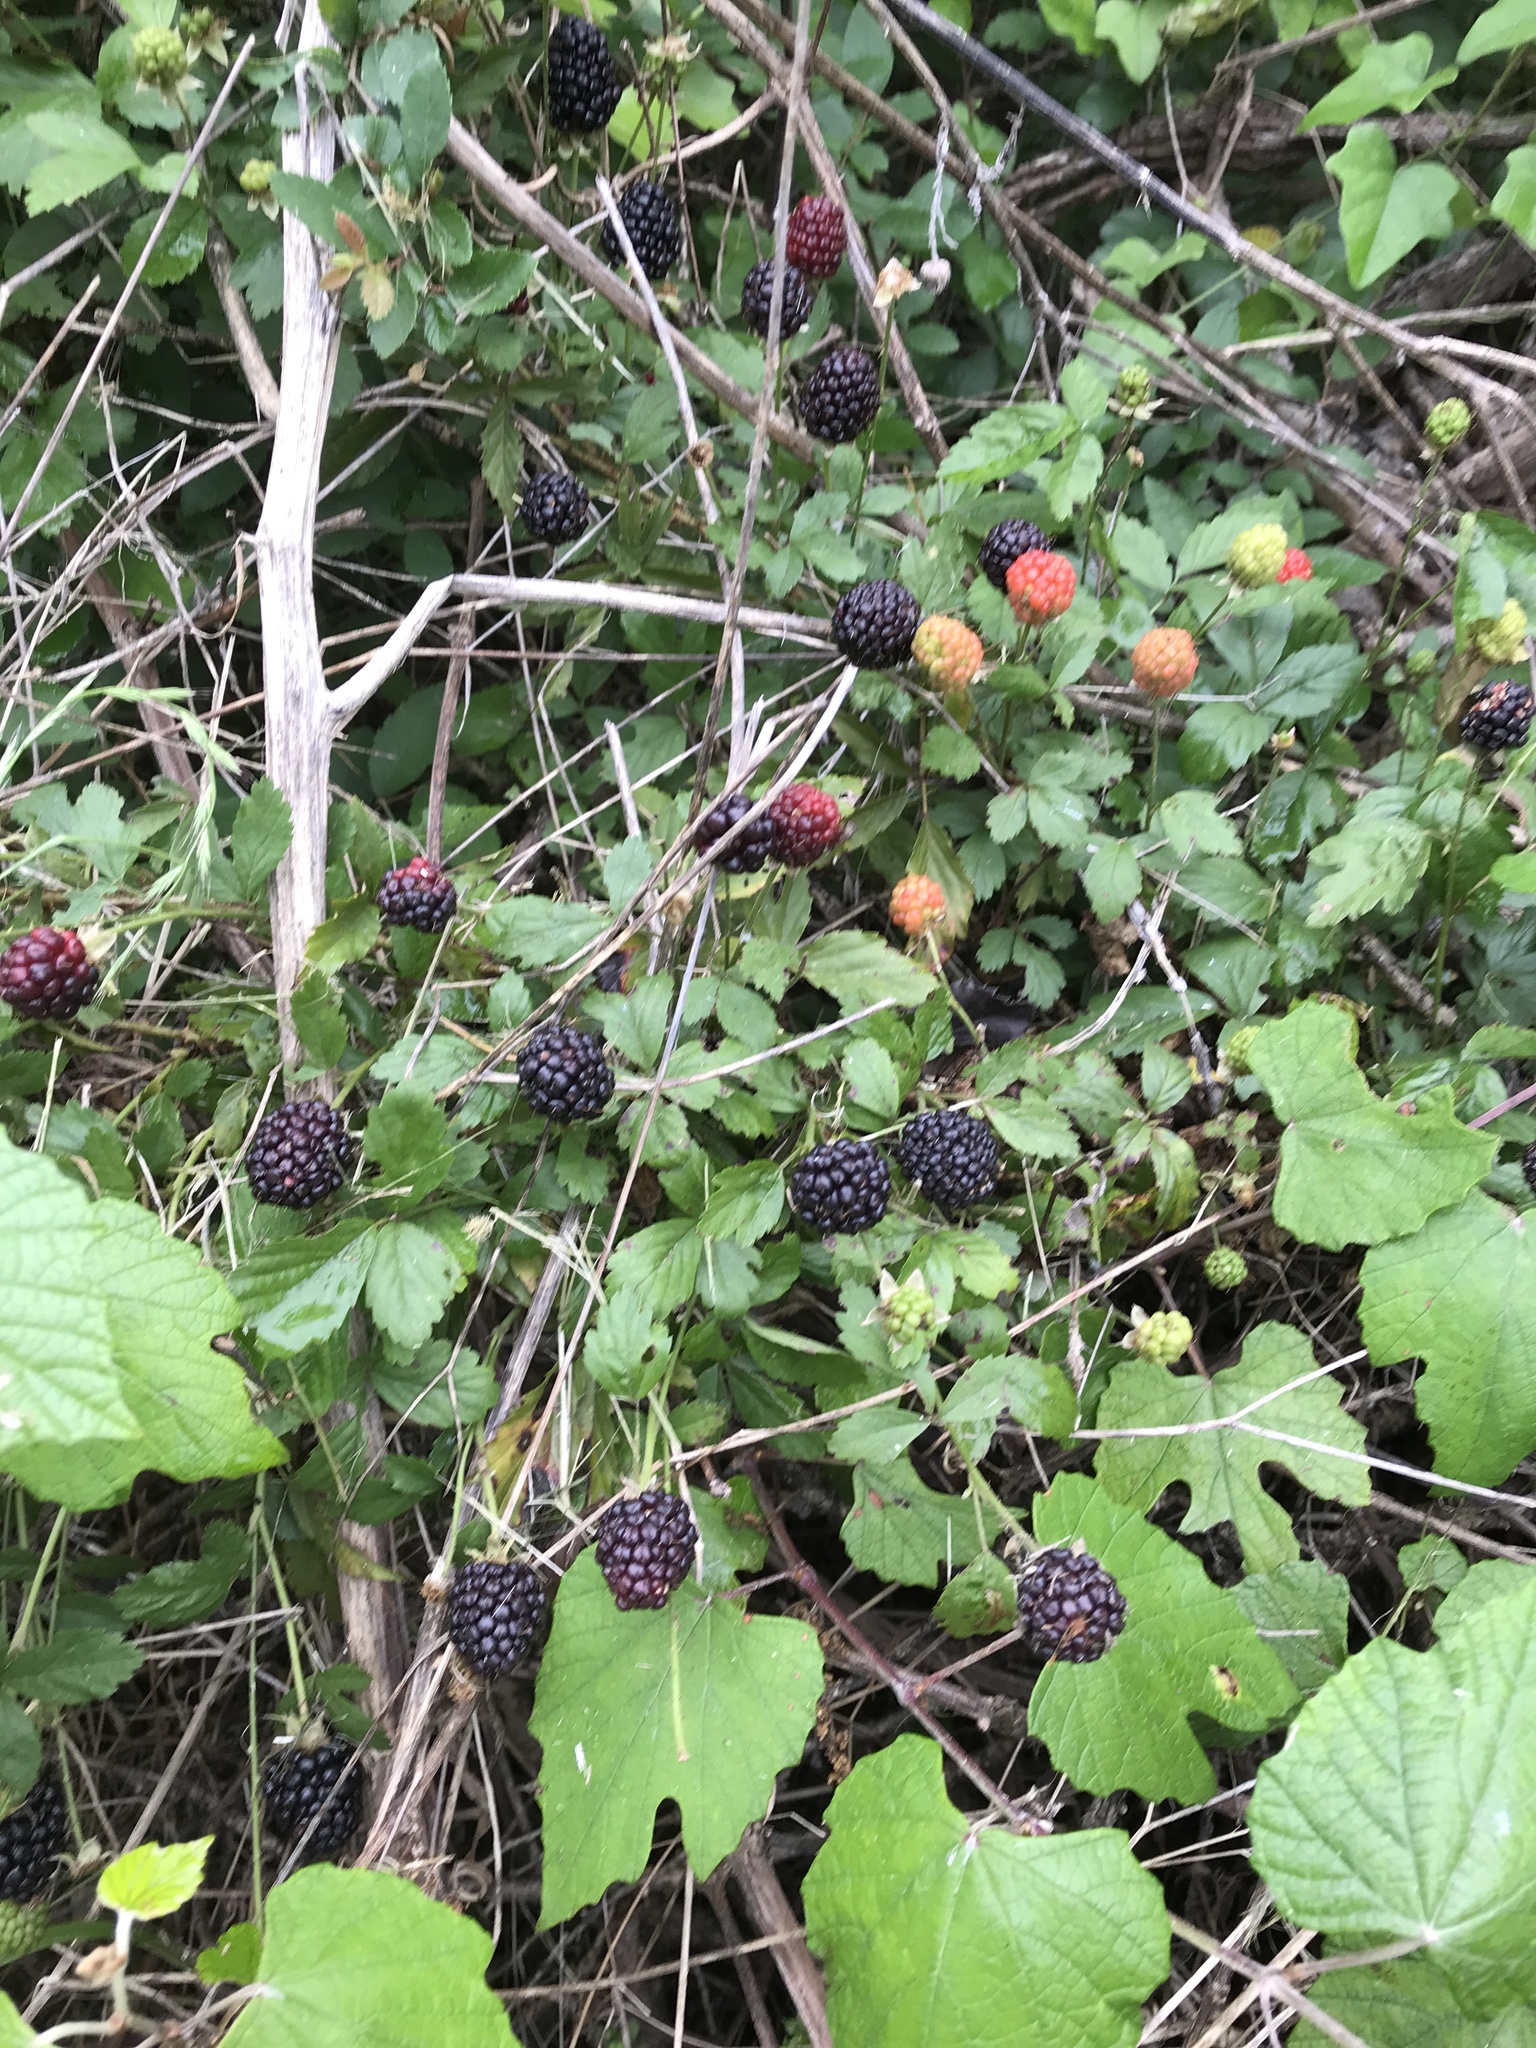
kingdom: Plantae
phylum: Tracheophyta
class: Magnoliopsida
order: Rosales
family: Rosaceae
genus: Rubus
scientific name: Rubus trivialis
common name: Southern dewberry
